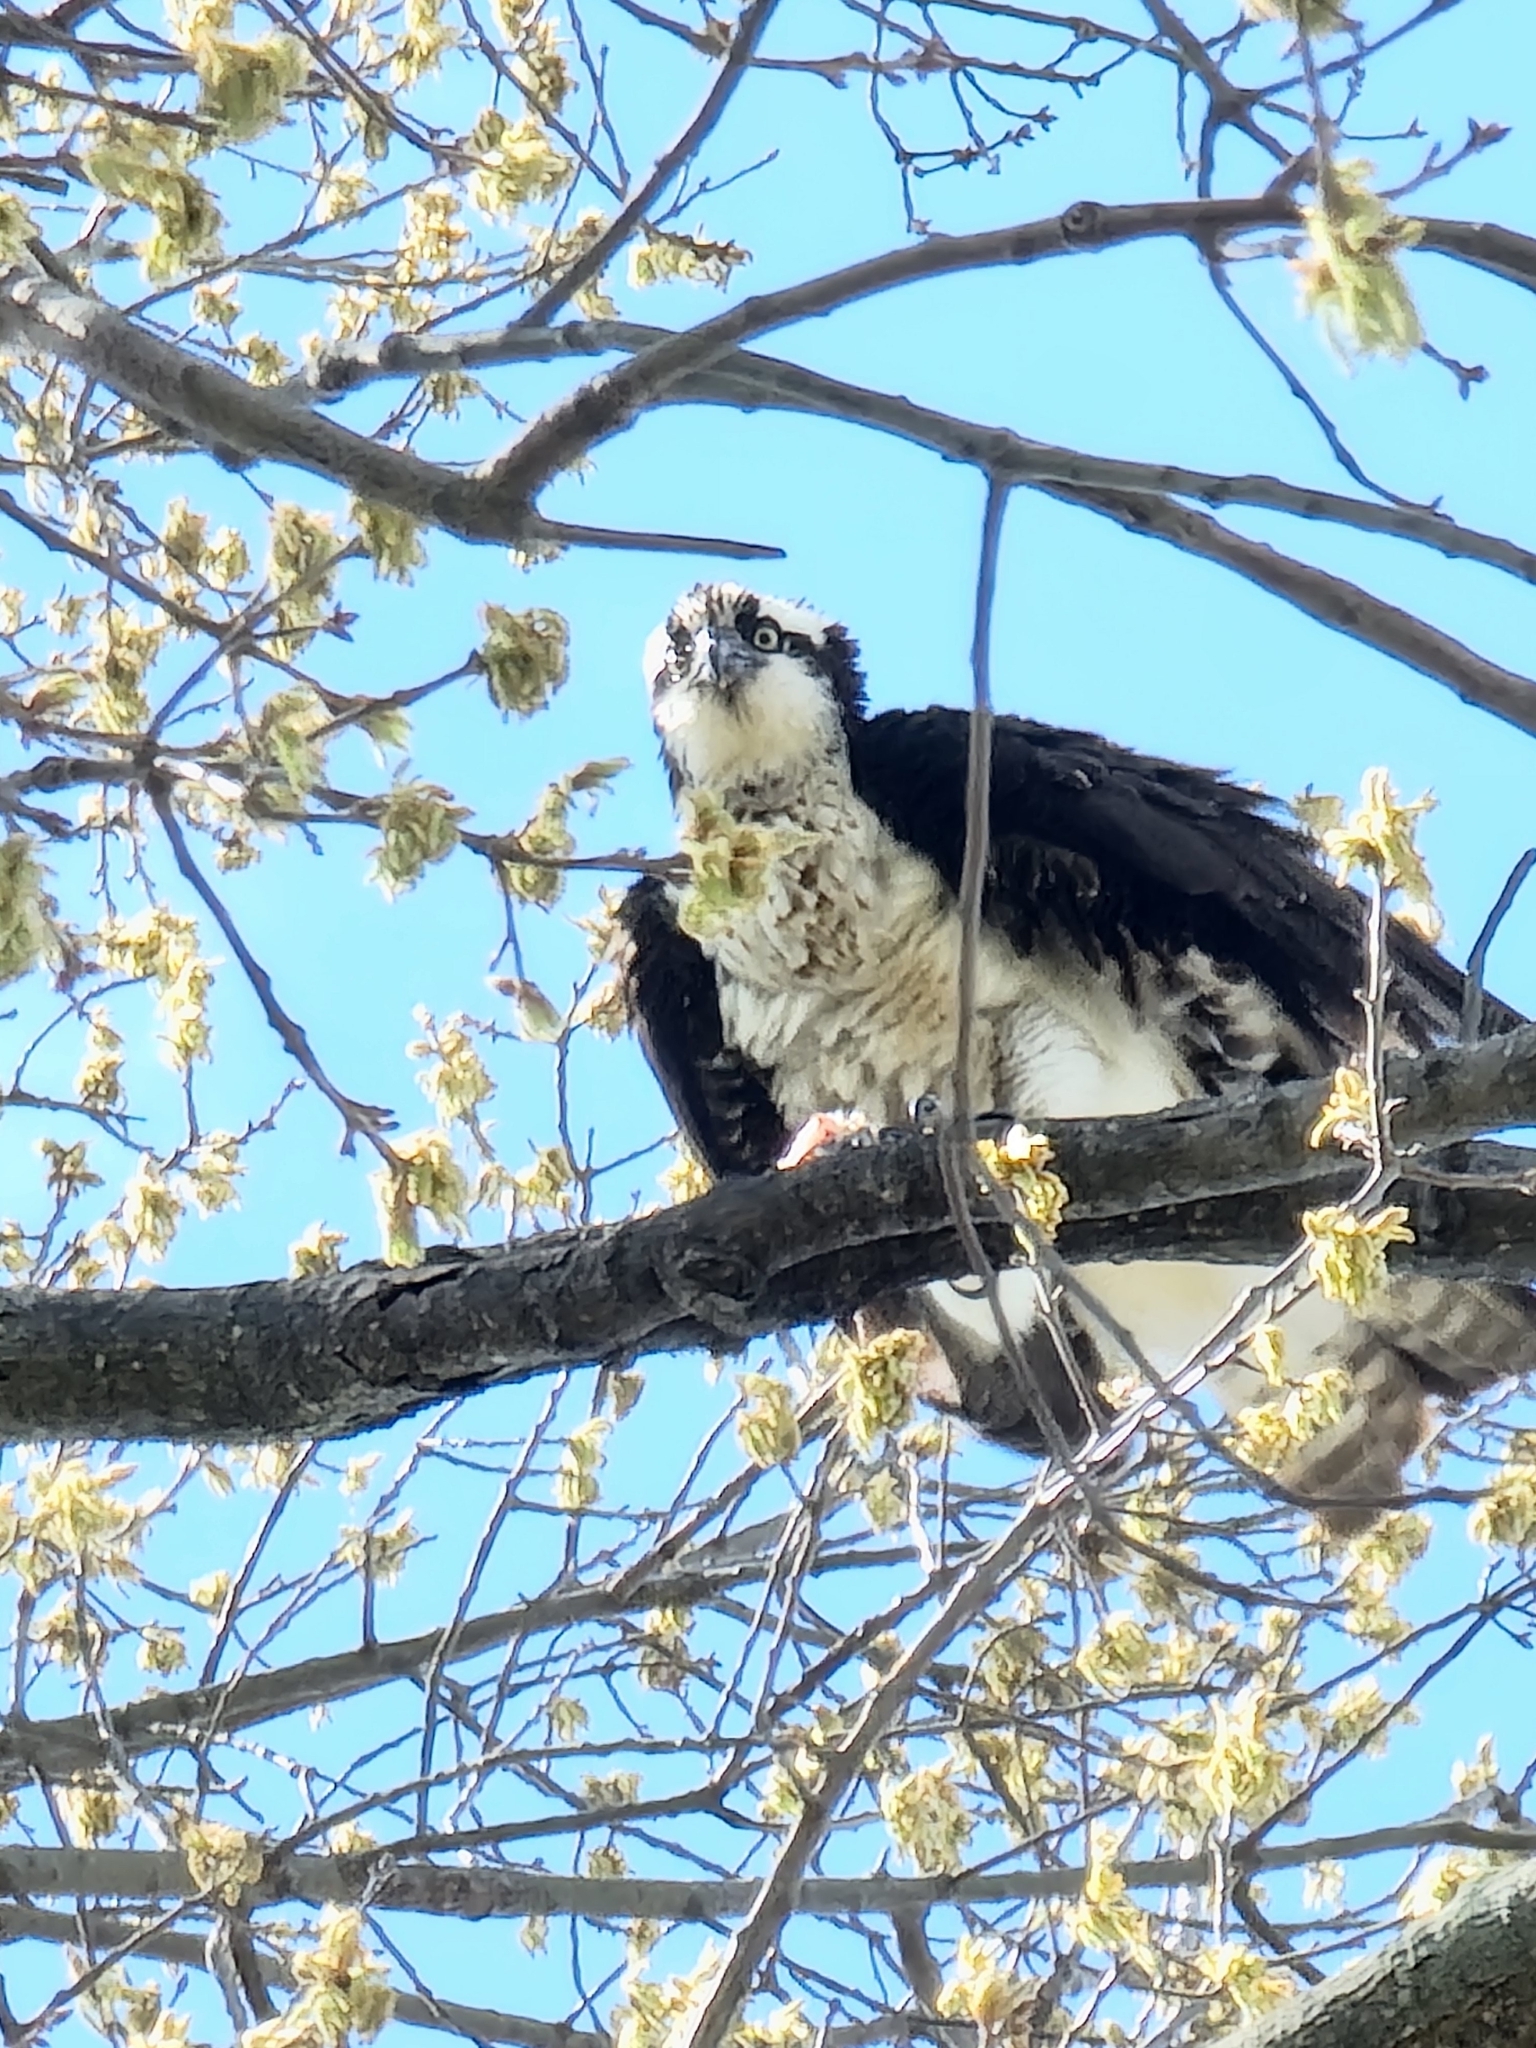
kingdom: Animalia
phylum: Chordata
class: Aves
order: Accipitriformes
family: Pandionidae
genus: Pandion
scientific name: Pandion haliaetus
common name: Osprey
